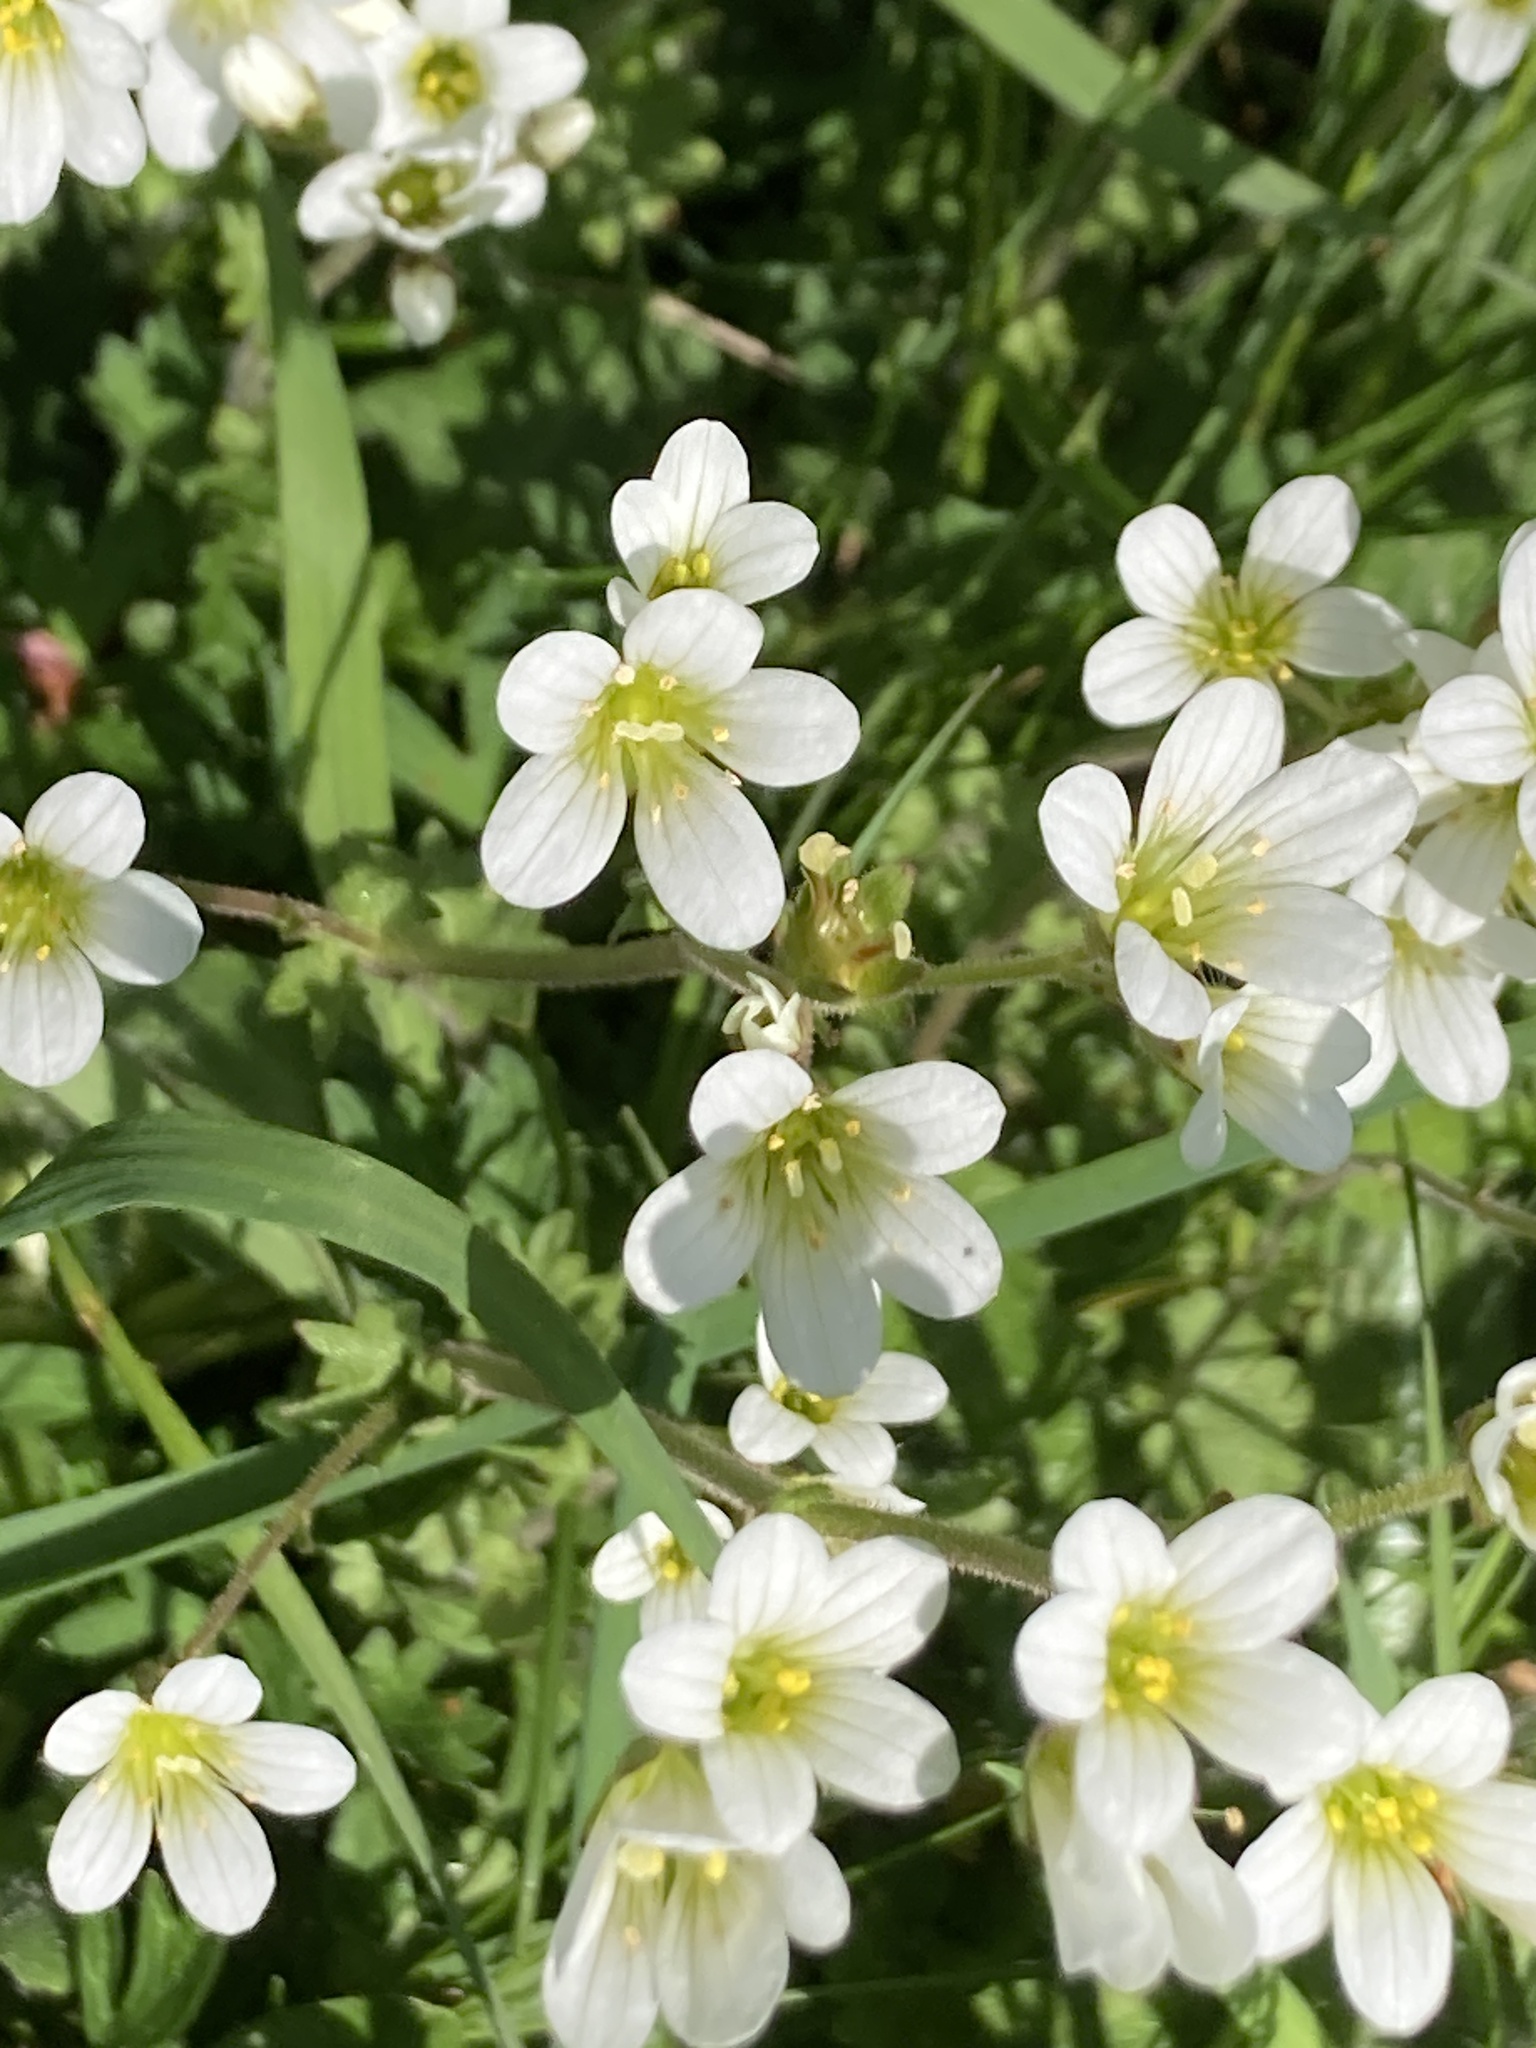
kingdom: Plantae
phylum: Tracheophyta
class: Magnoliopsida
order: Saxifragales
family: Saxifragaceae
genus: Saxifraga
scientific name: Saxifraga granulata
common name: Meadow saxifrage
